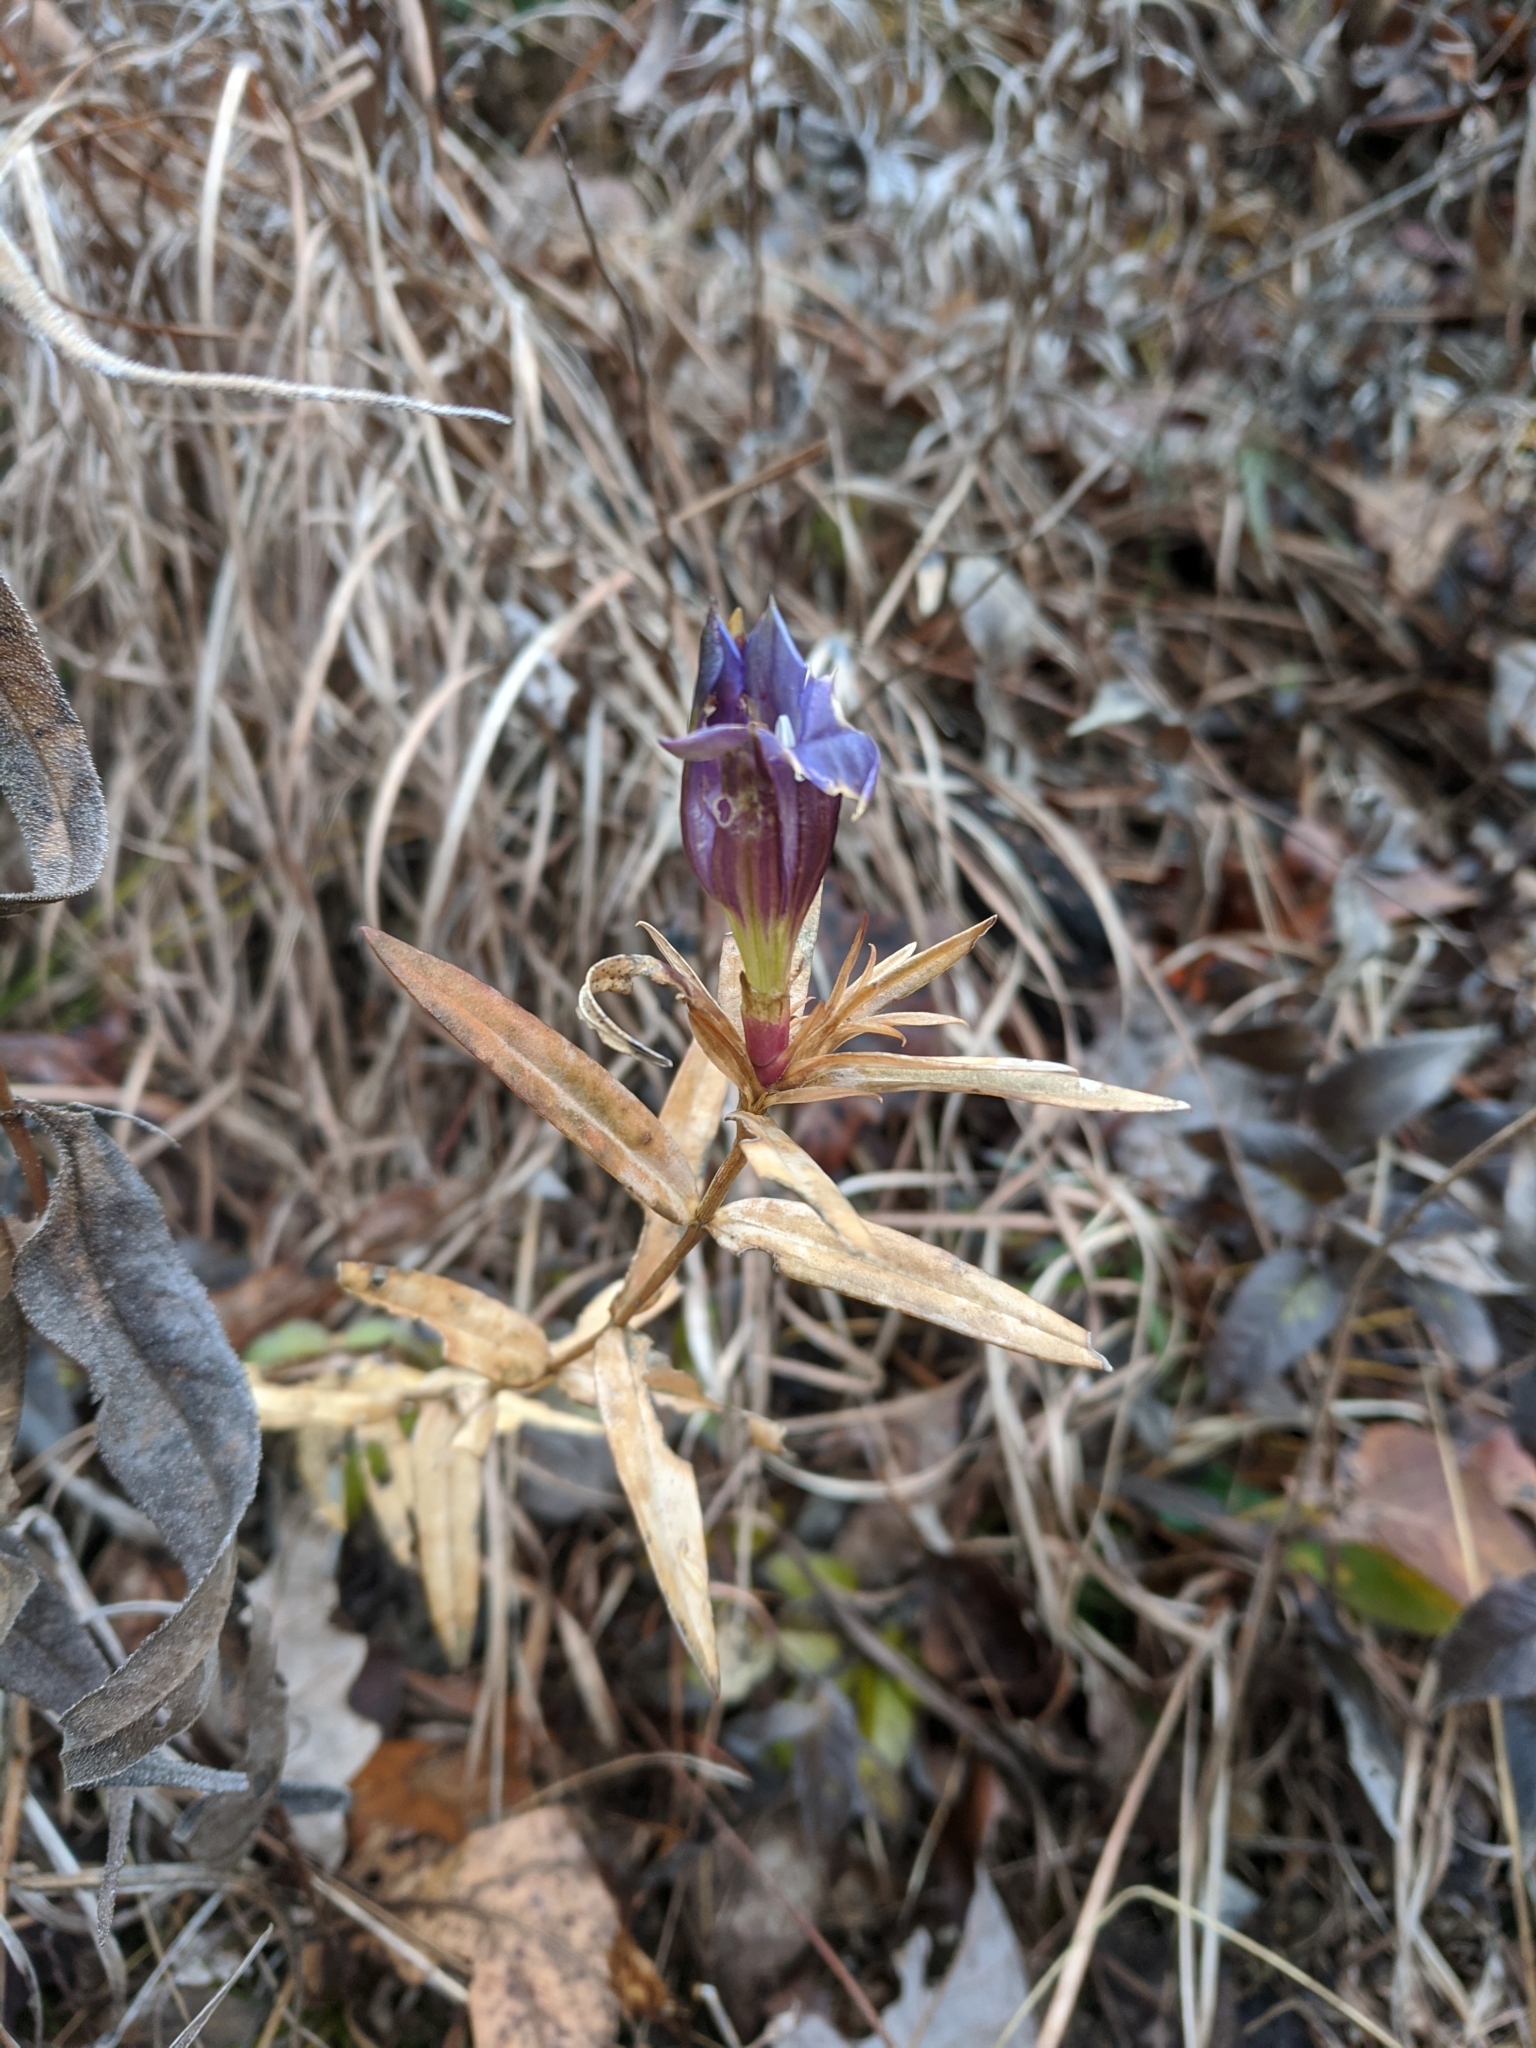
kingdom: Plantae
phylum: Tracheophyta
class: Magnoliopsida
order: Gentianales
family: Gentianaceae
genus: Gentiana
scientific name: Gentiana puberulenta
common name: Downy gentian
